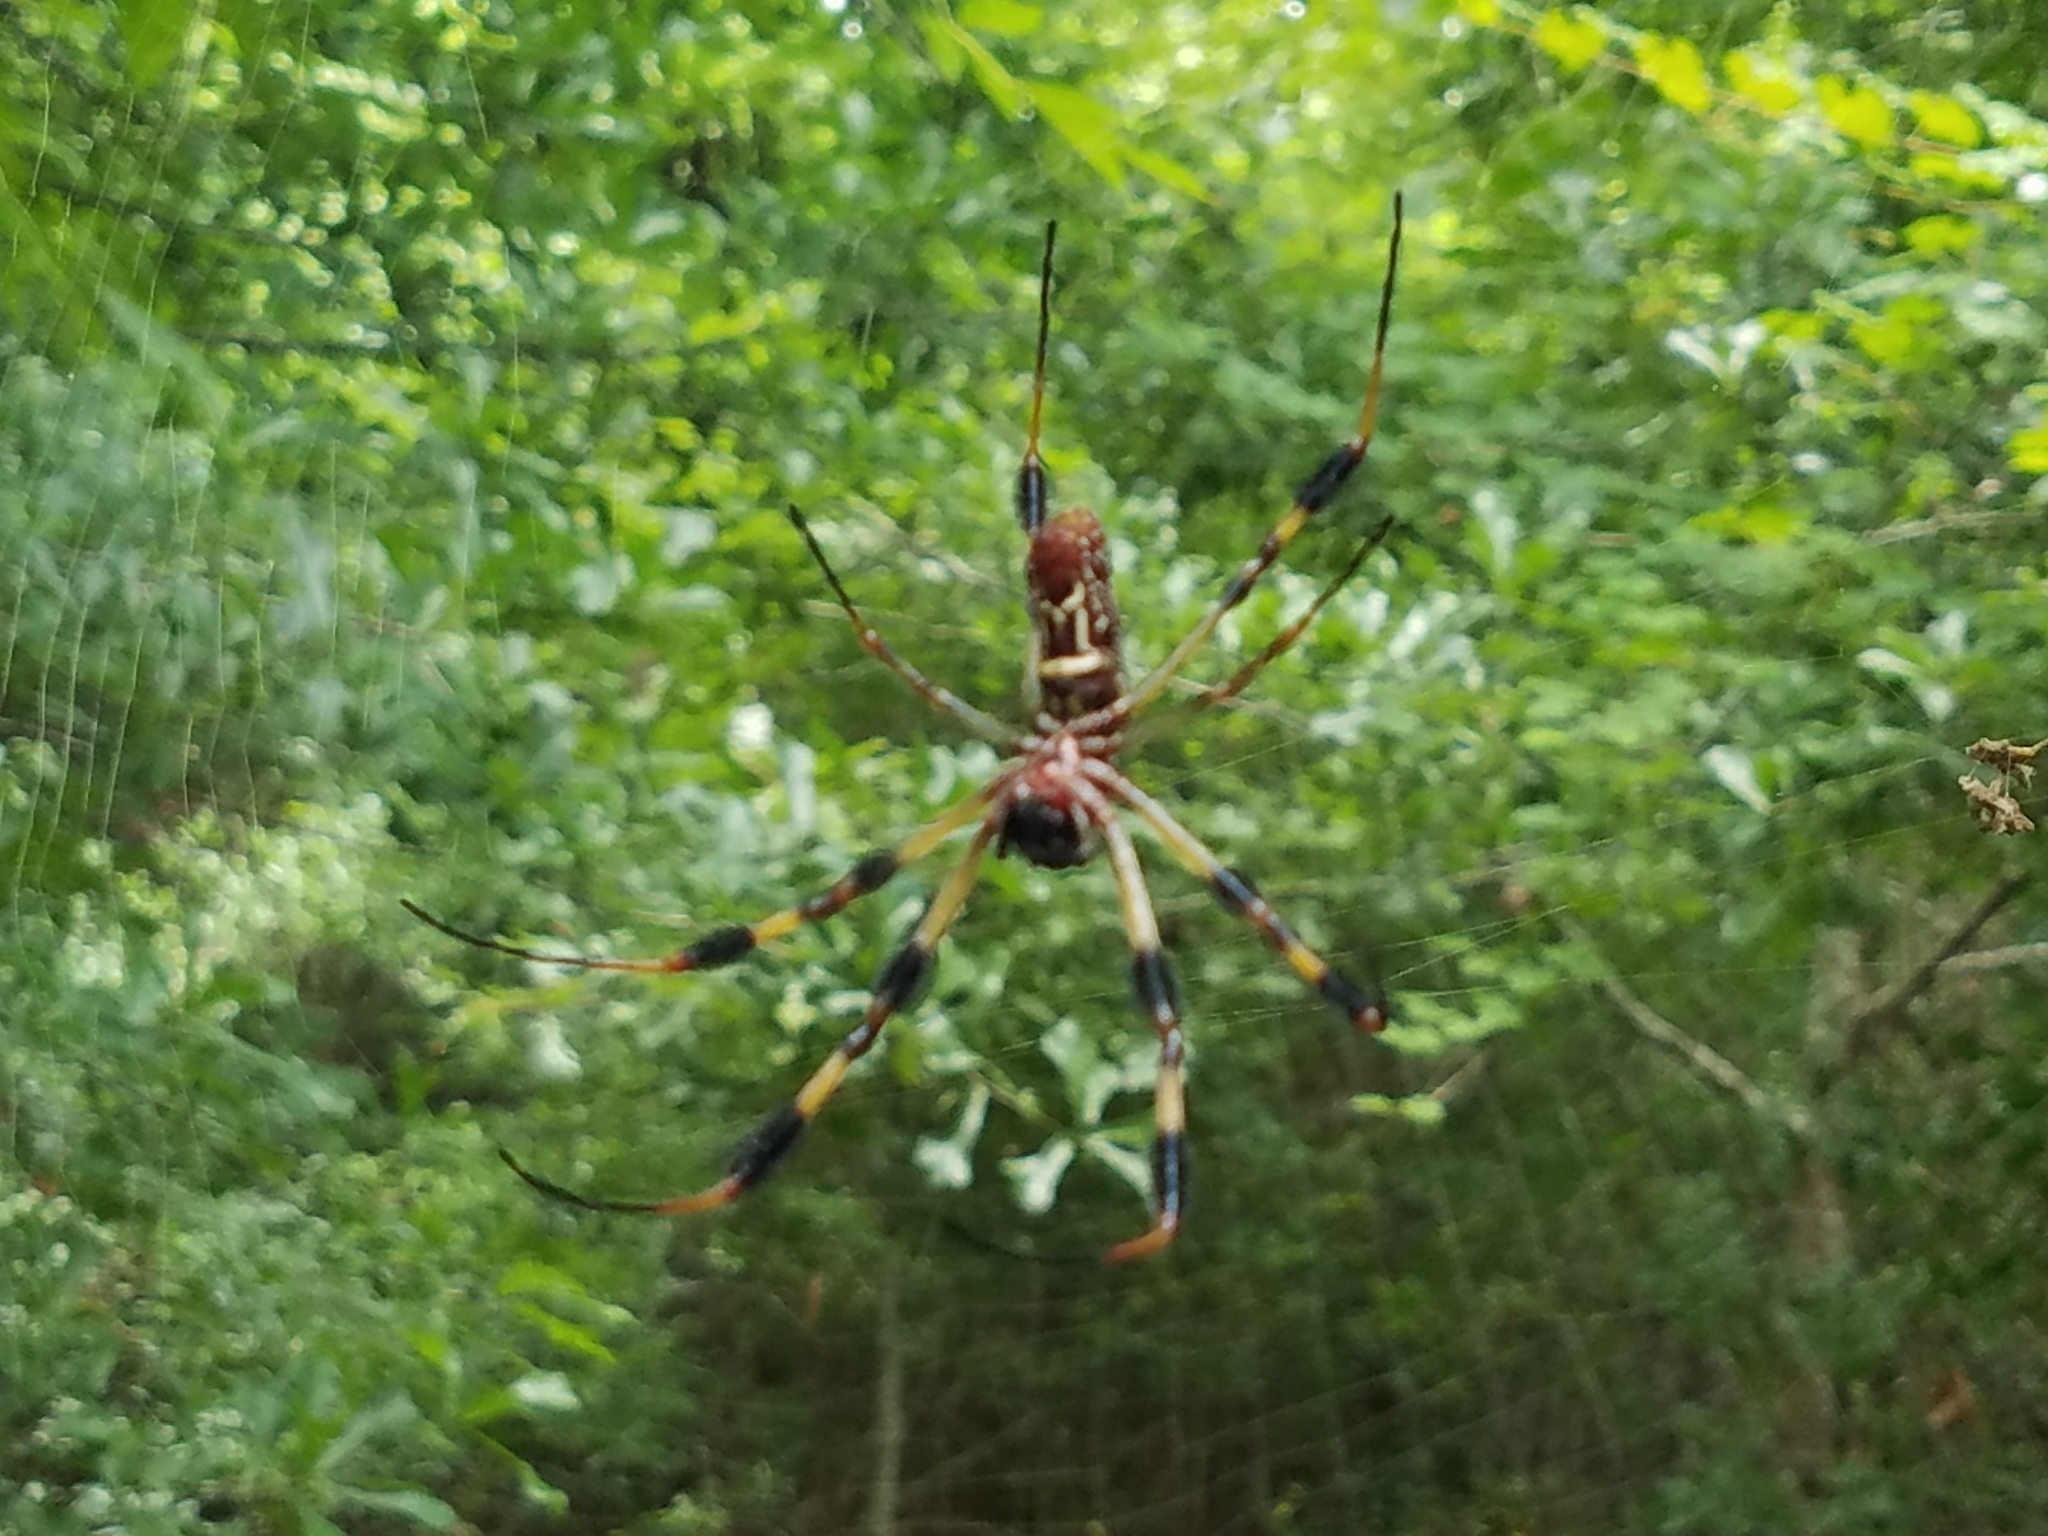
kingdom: Animalia
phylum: Arthropoda
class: Arachnida
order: Araneae
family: Araneidae
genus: Trichonephila
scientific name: Trichonephila clavipes
